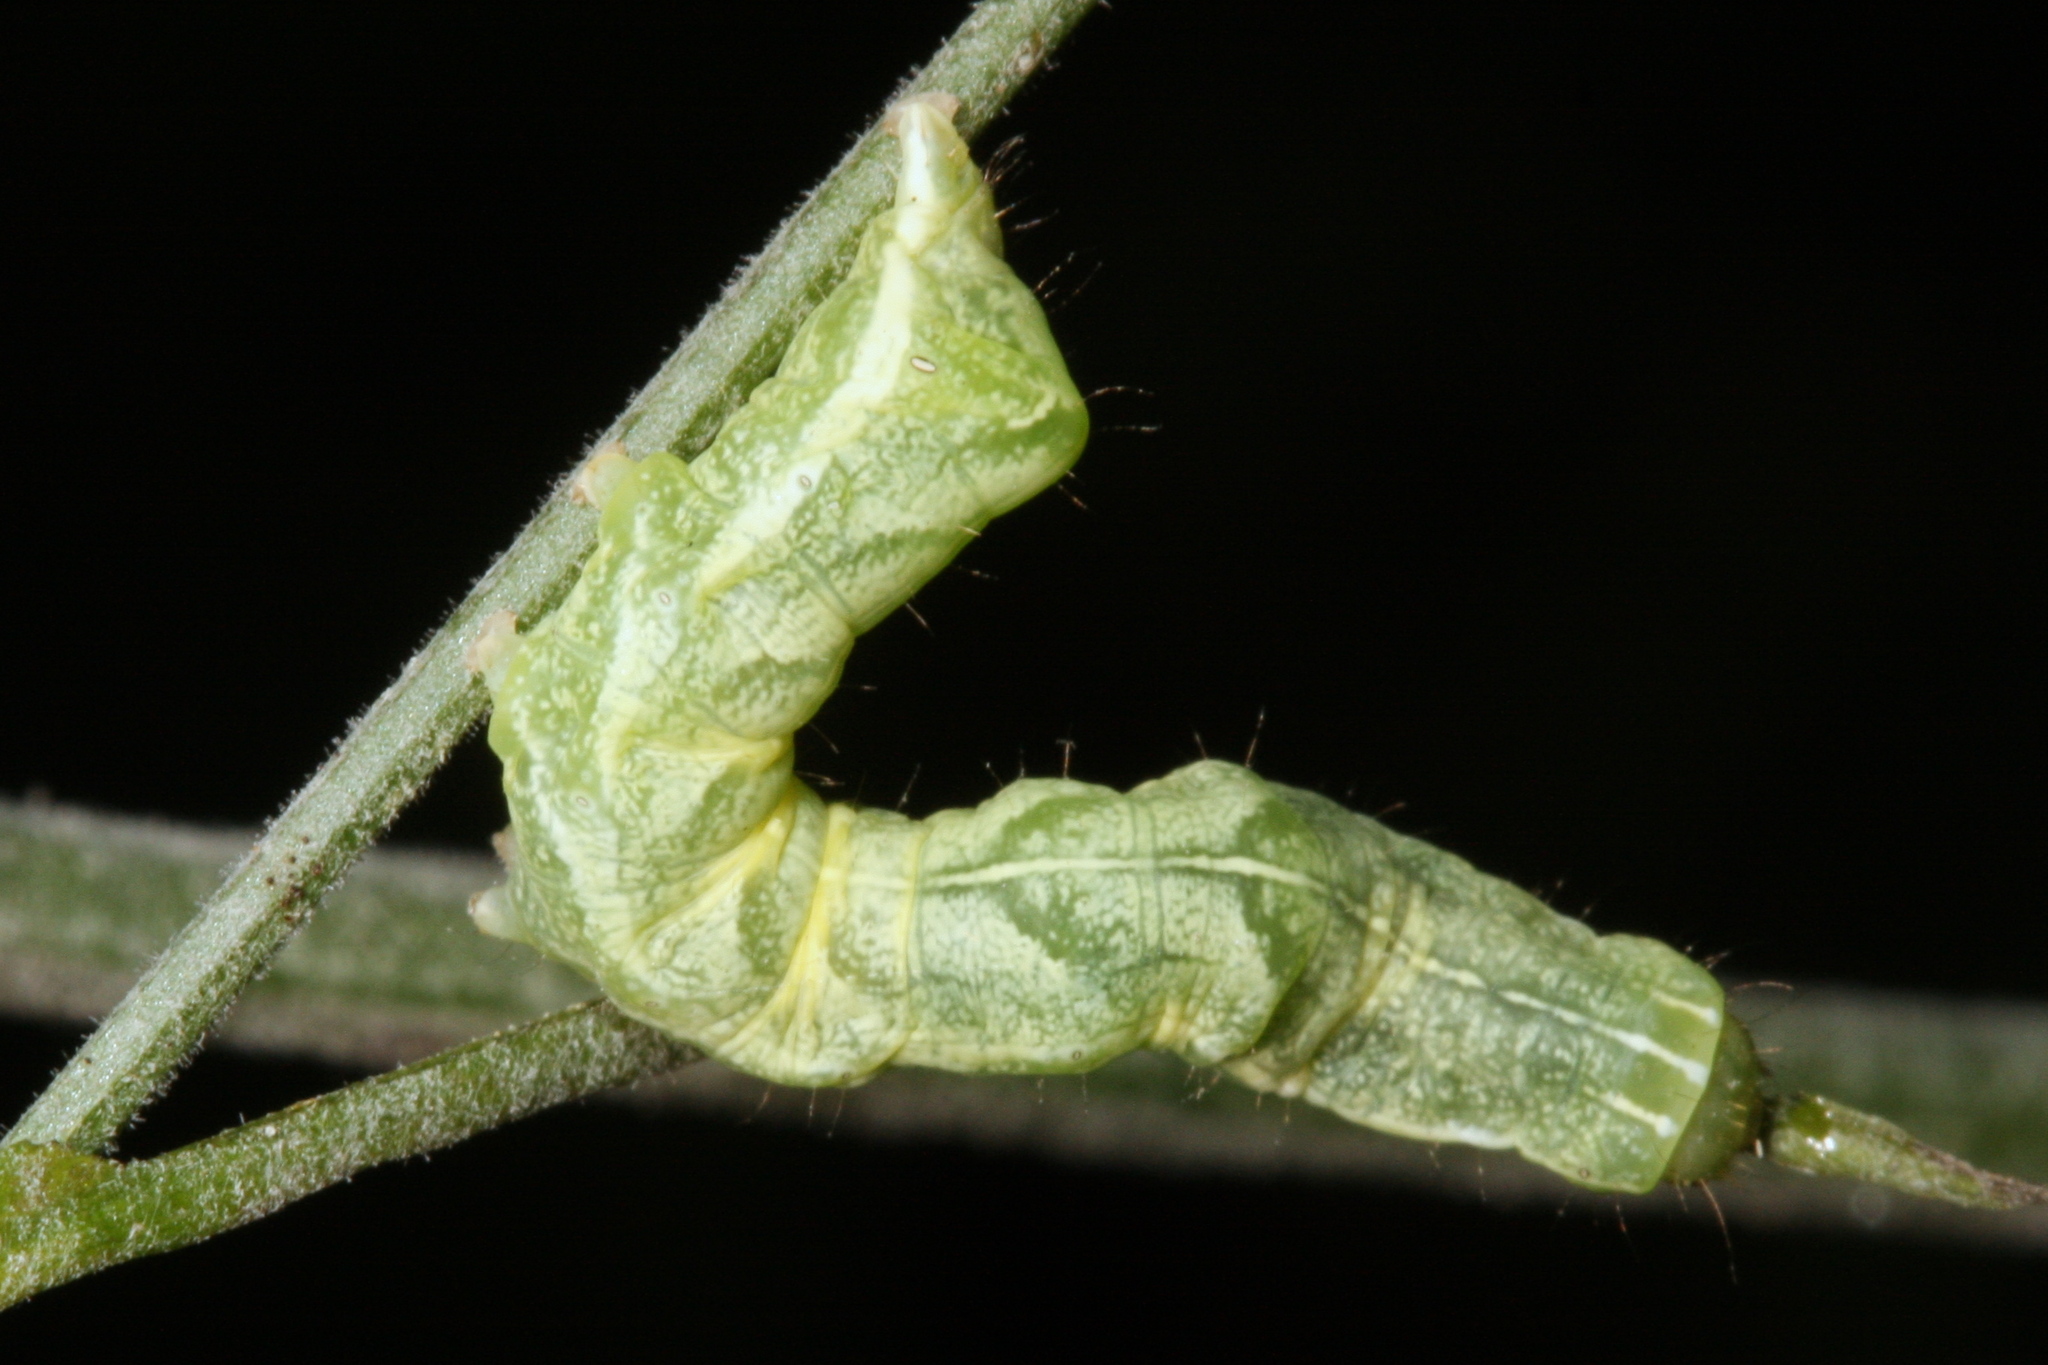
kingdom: Animalia
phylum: Arthropoda
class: Insecta
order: Lepidoptera
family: Noctuidae
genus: Melanchra
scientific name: Melanchra persicariae
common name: Dot moth
